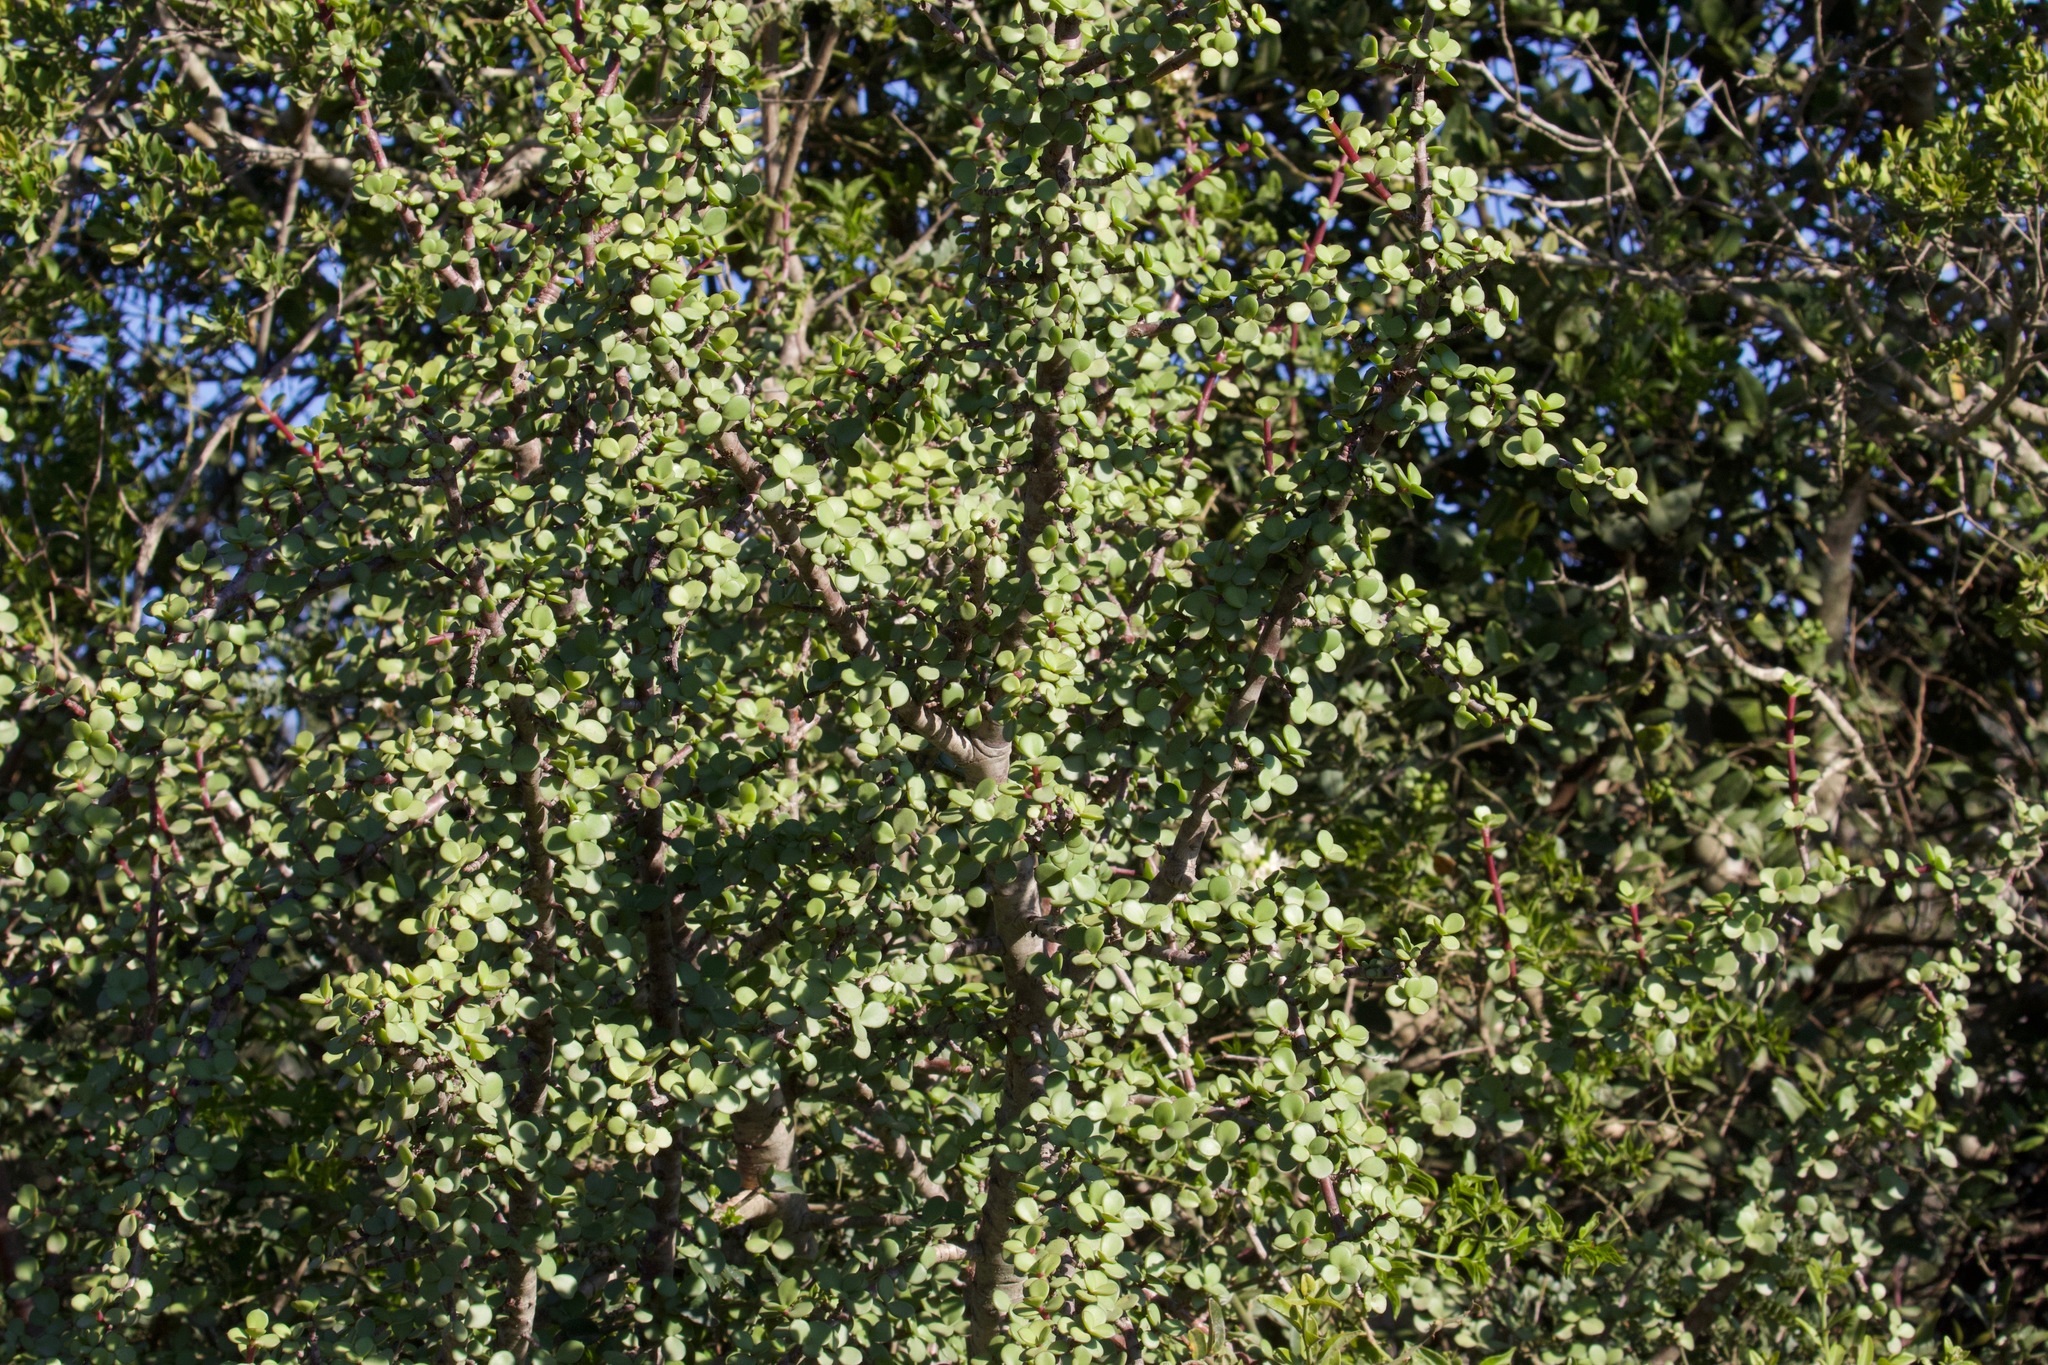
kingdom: Plantae
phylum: Tracheophyta
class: Magnoliopsida
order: Caryophyllales
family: Didiereaceae
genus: Portulacaria
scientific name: Portulacaria afra
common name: Elephant-bush
